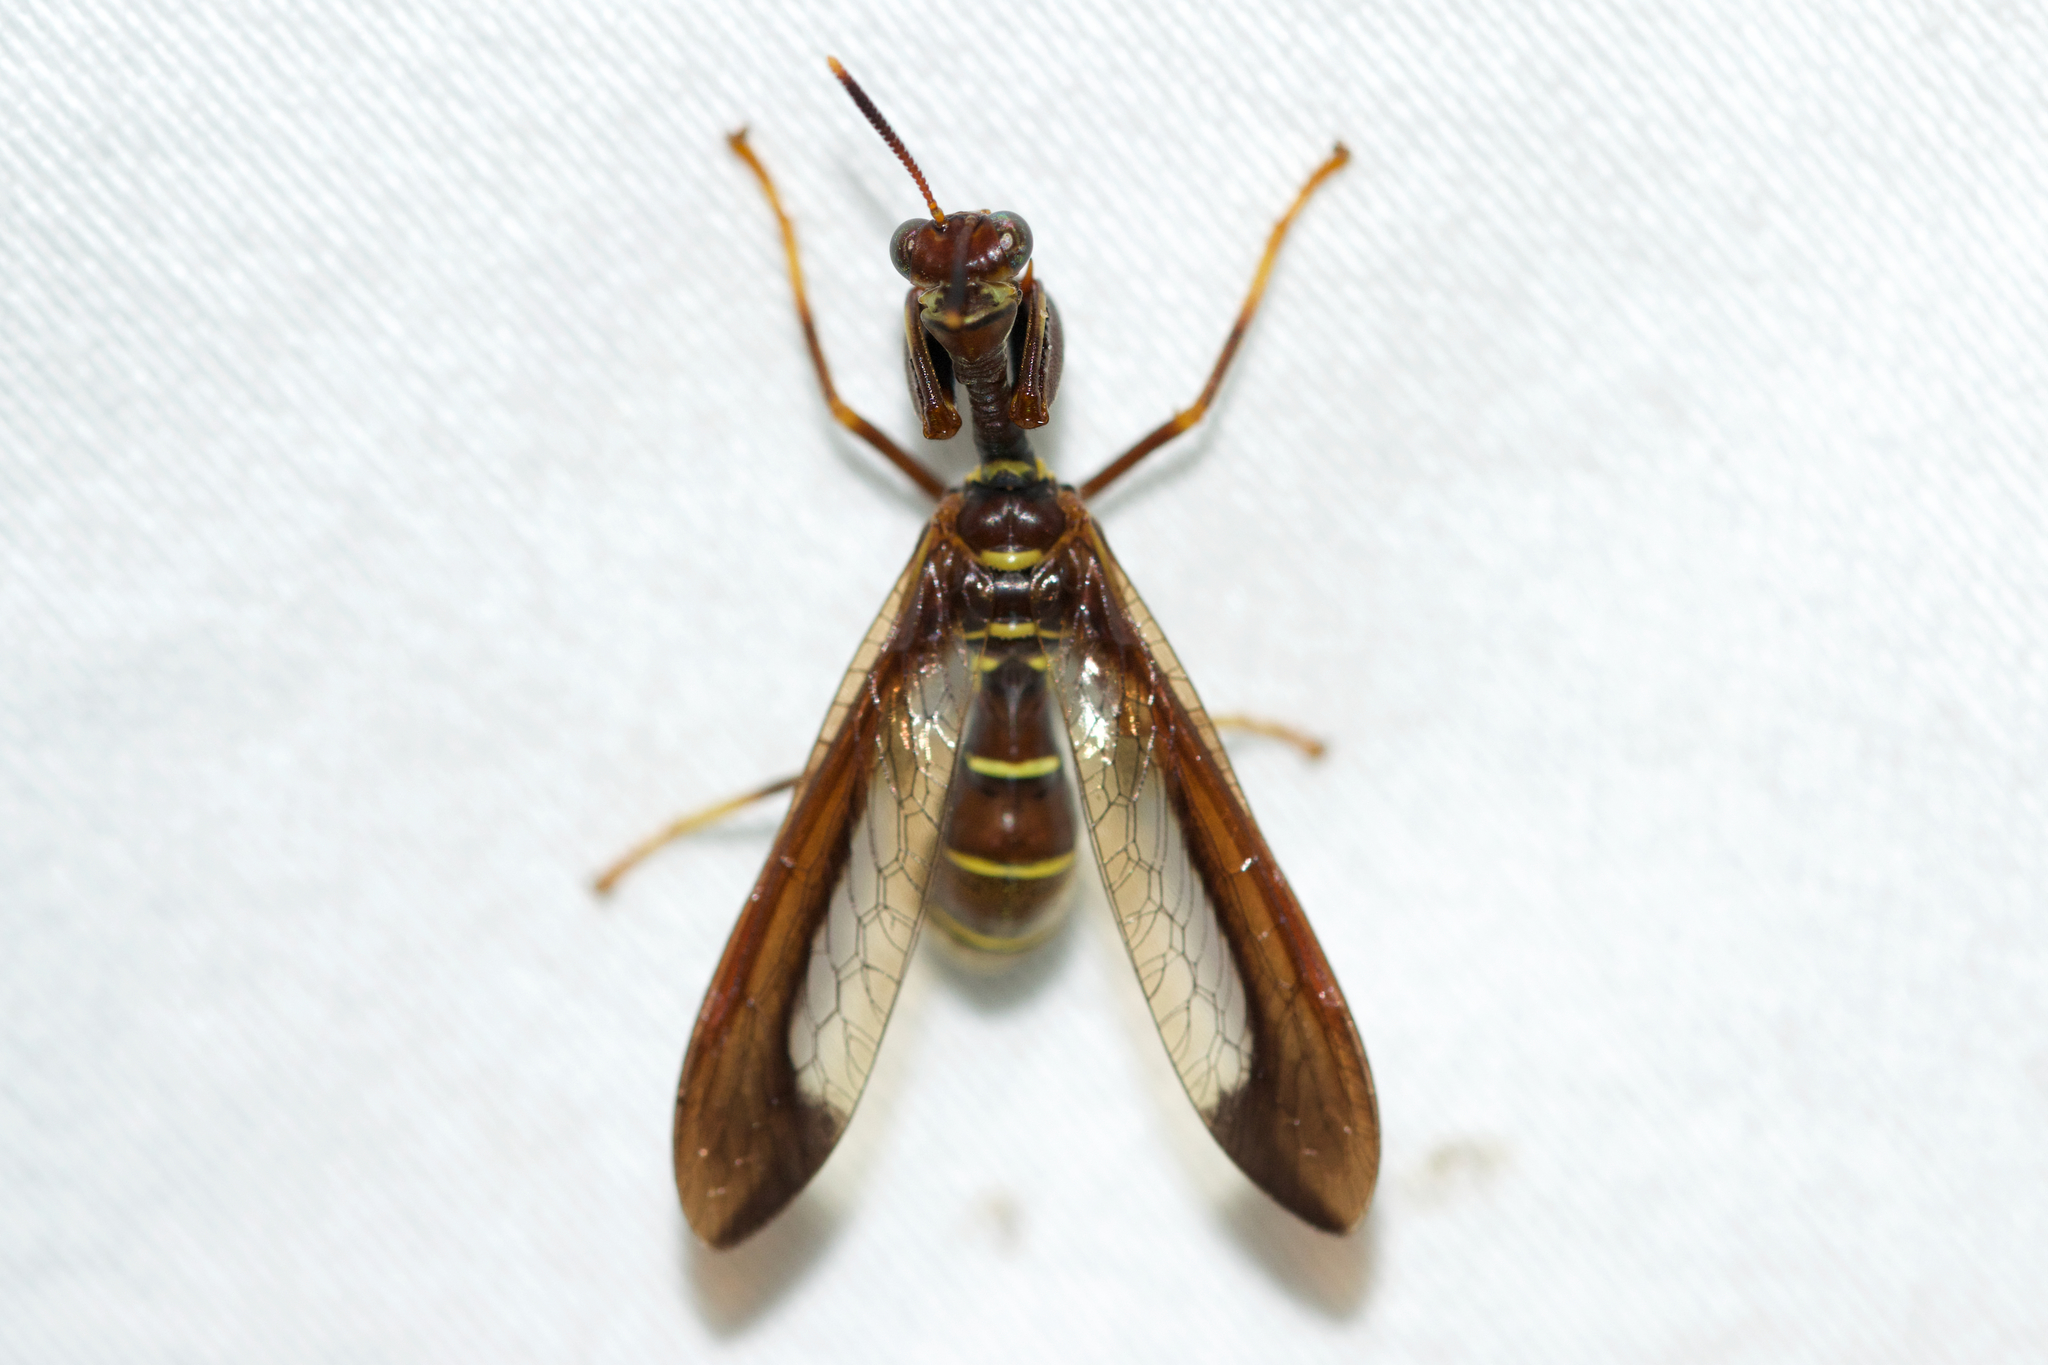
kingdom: Animalia
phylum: Arthropoda
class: Insecta
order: Neuroptera
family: Mantispidae
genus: Climaciella
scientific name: Climaciella brunnea
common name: Brown wasp mantidfly
